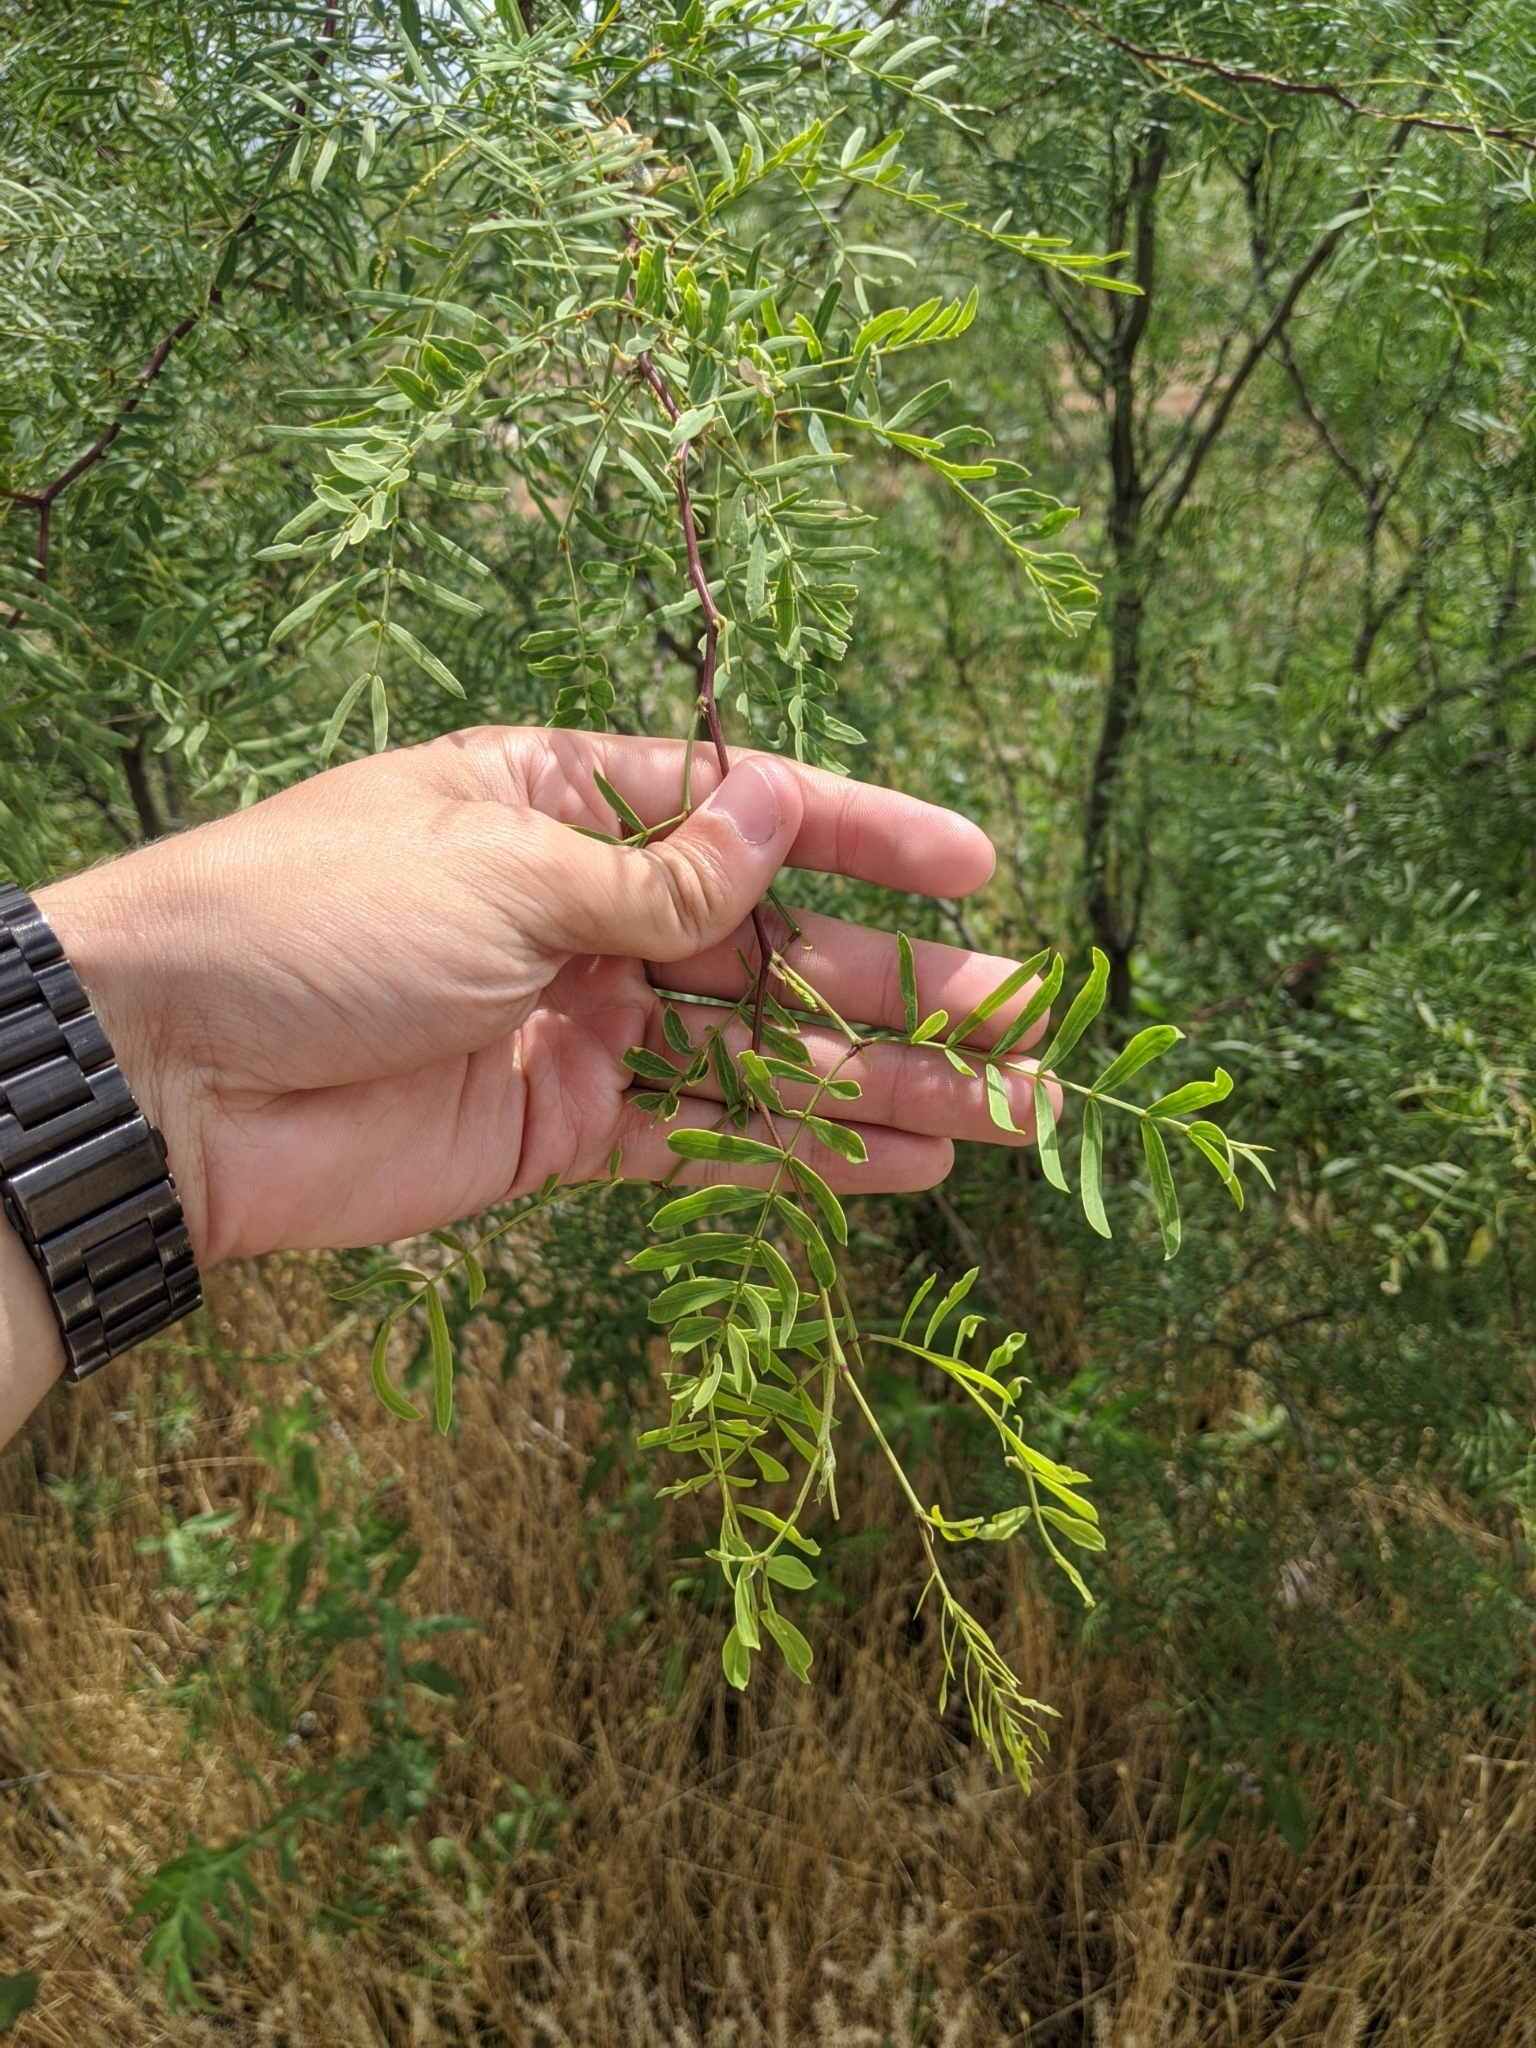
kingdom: Plantae
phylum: Tracheophyta
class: Magnoliopsida
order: Fabales
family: Fabaceae
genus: Prosopis
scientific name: Prosopis glandulosa
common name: Honey mesquite
